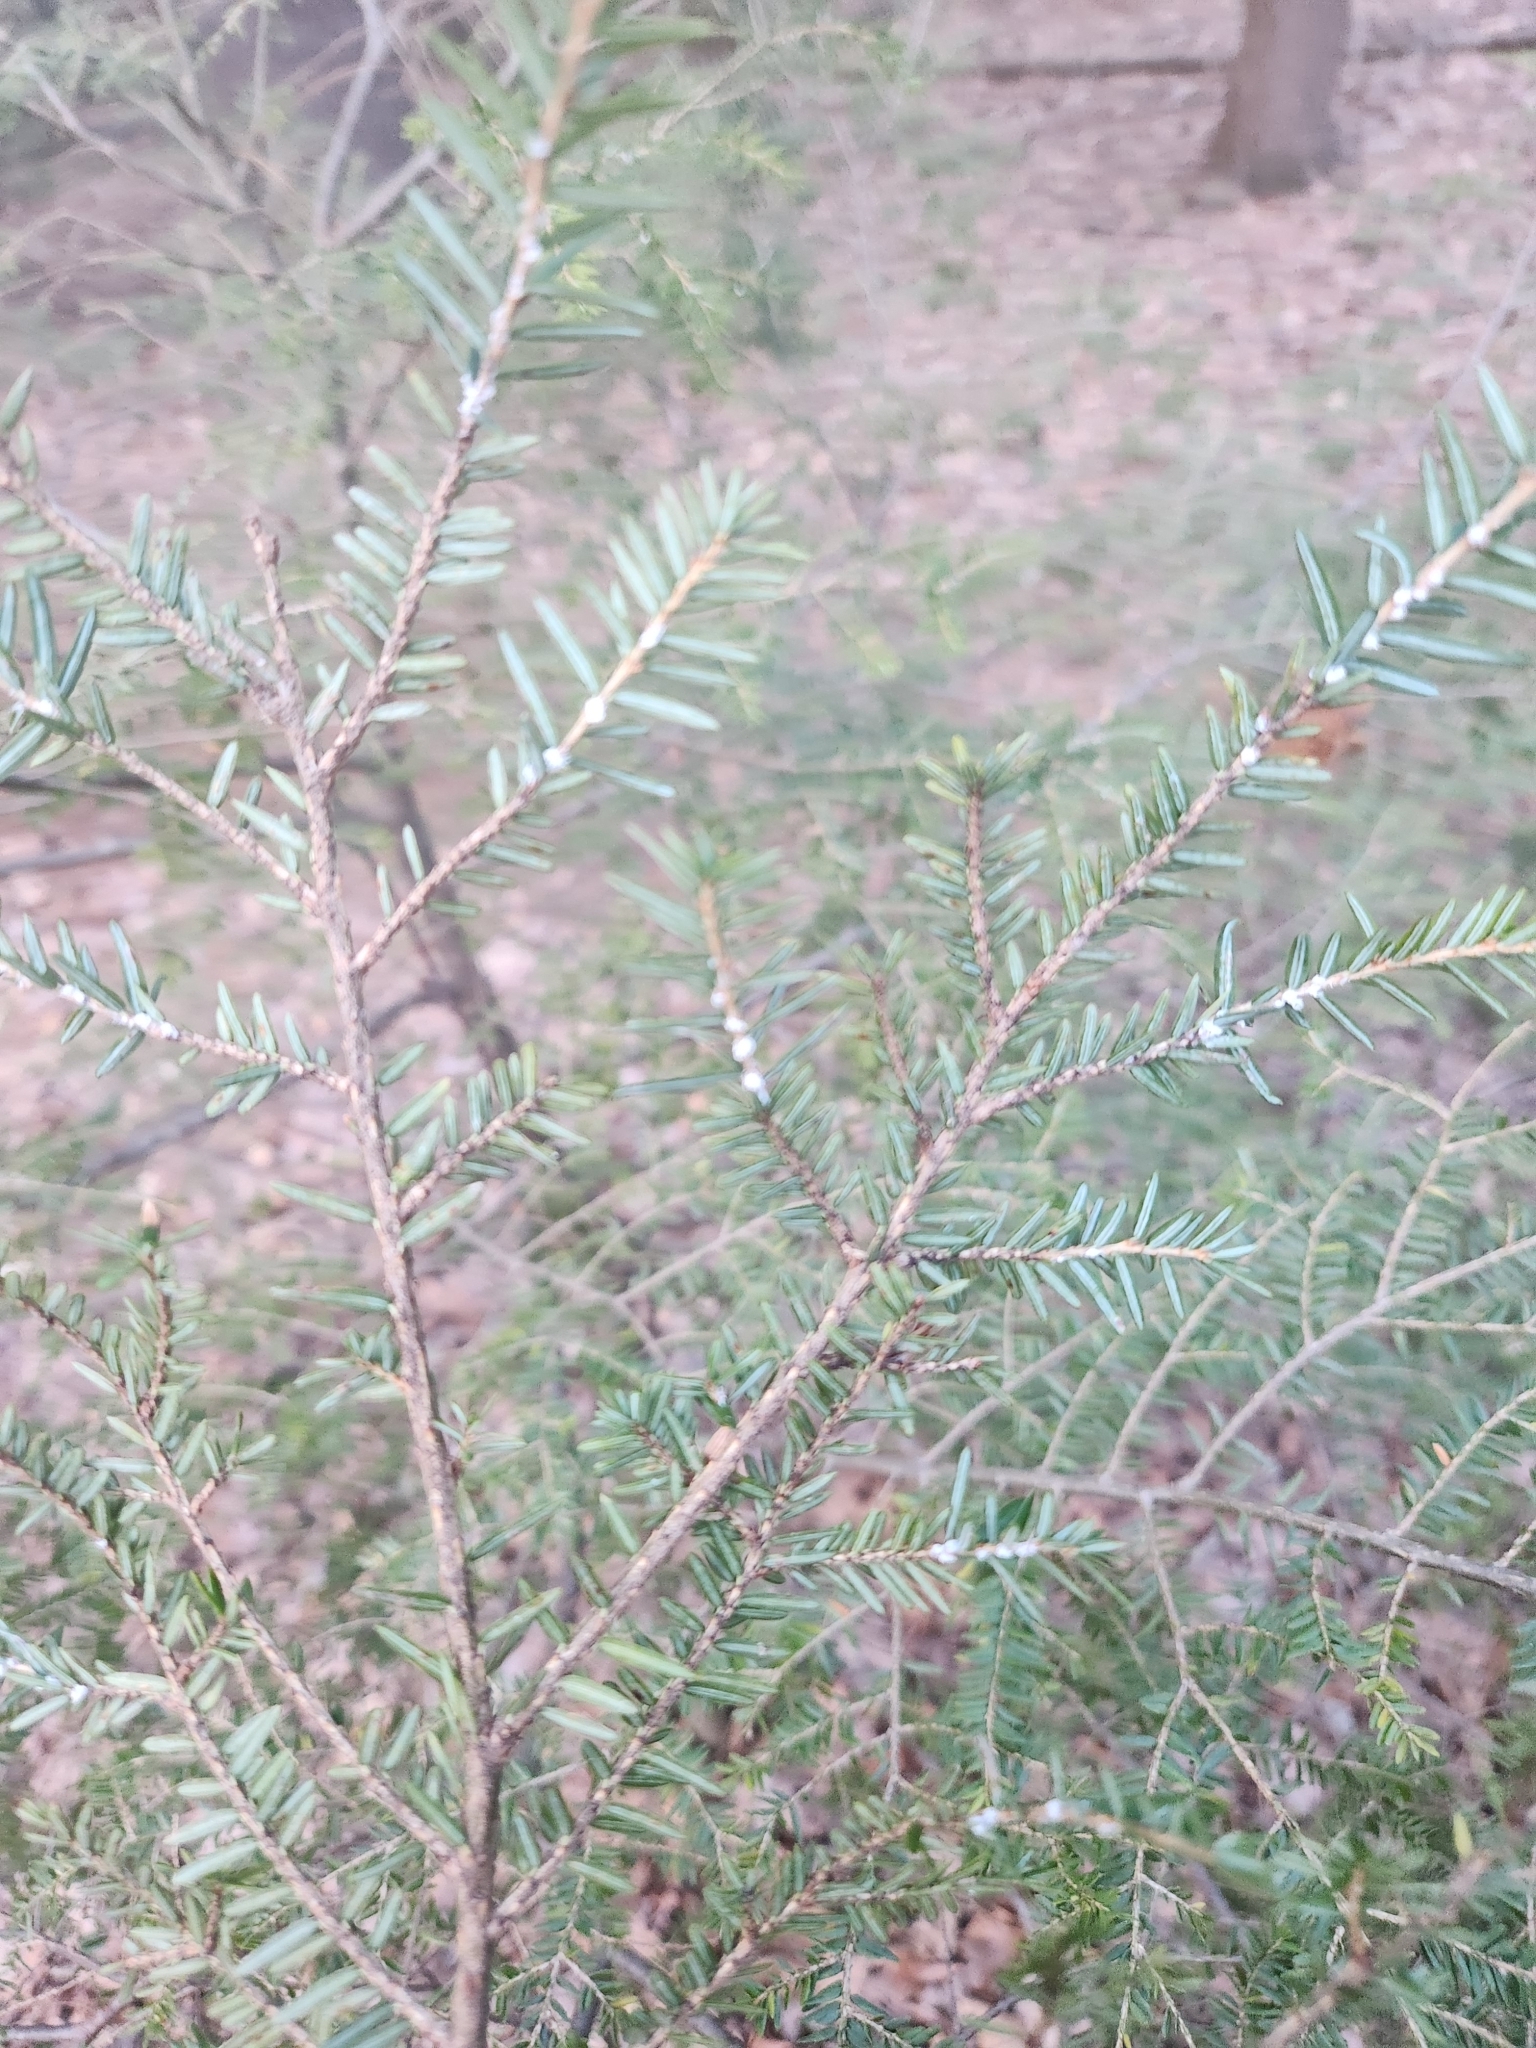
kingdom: Animalia
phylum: Arthropoda
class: Insecta
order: Hemiptera
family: Adelgidae
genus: Adelges
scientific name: Adelges tsugae
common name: Hemlock woolly adelgid
